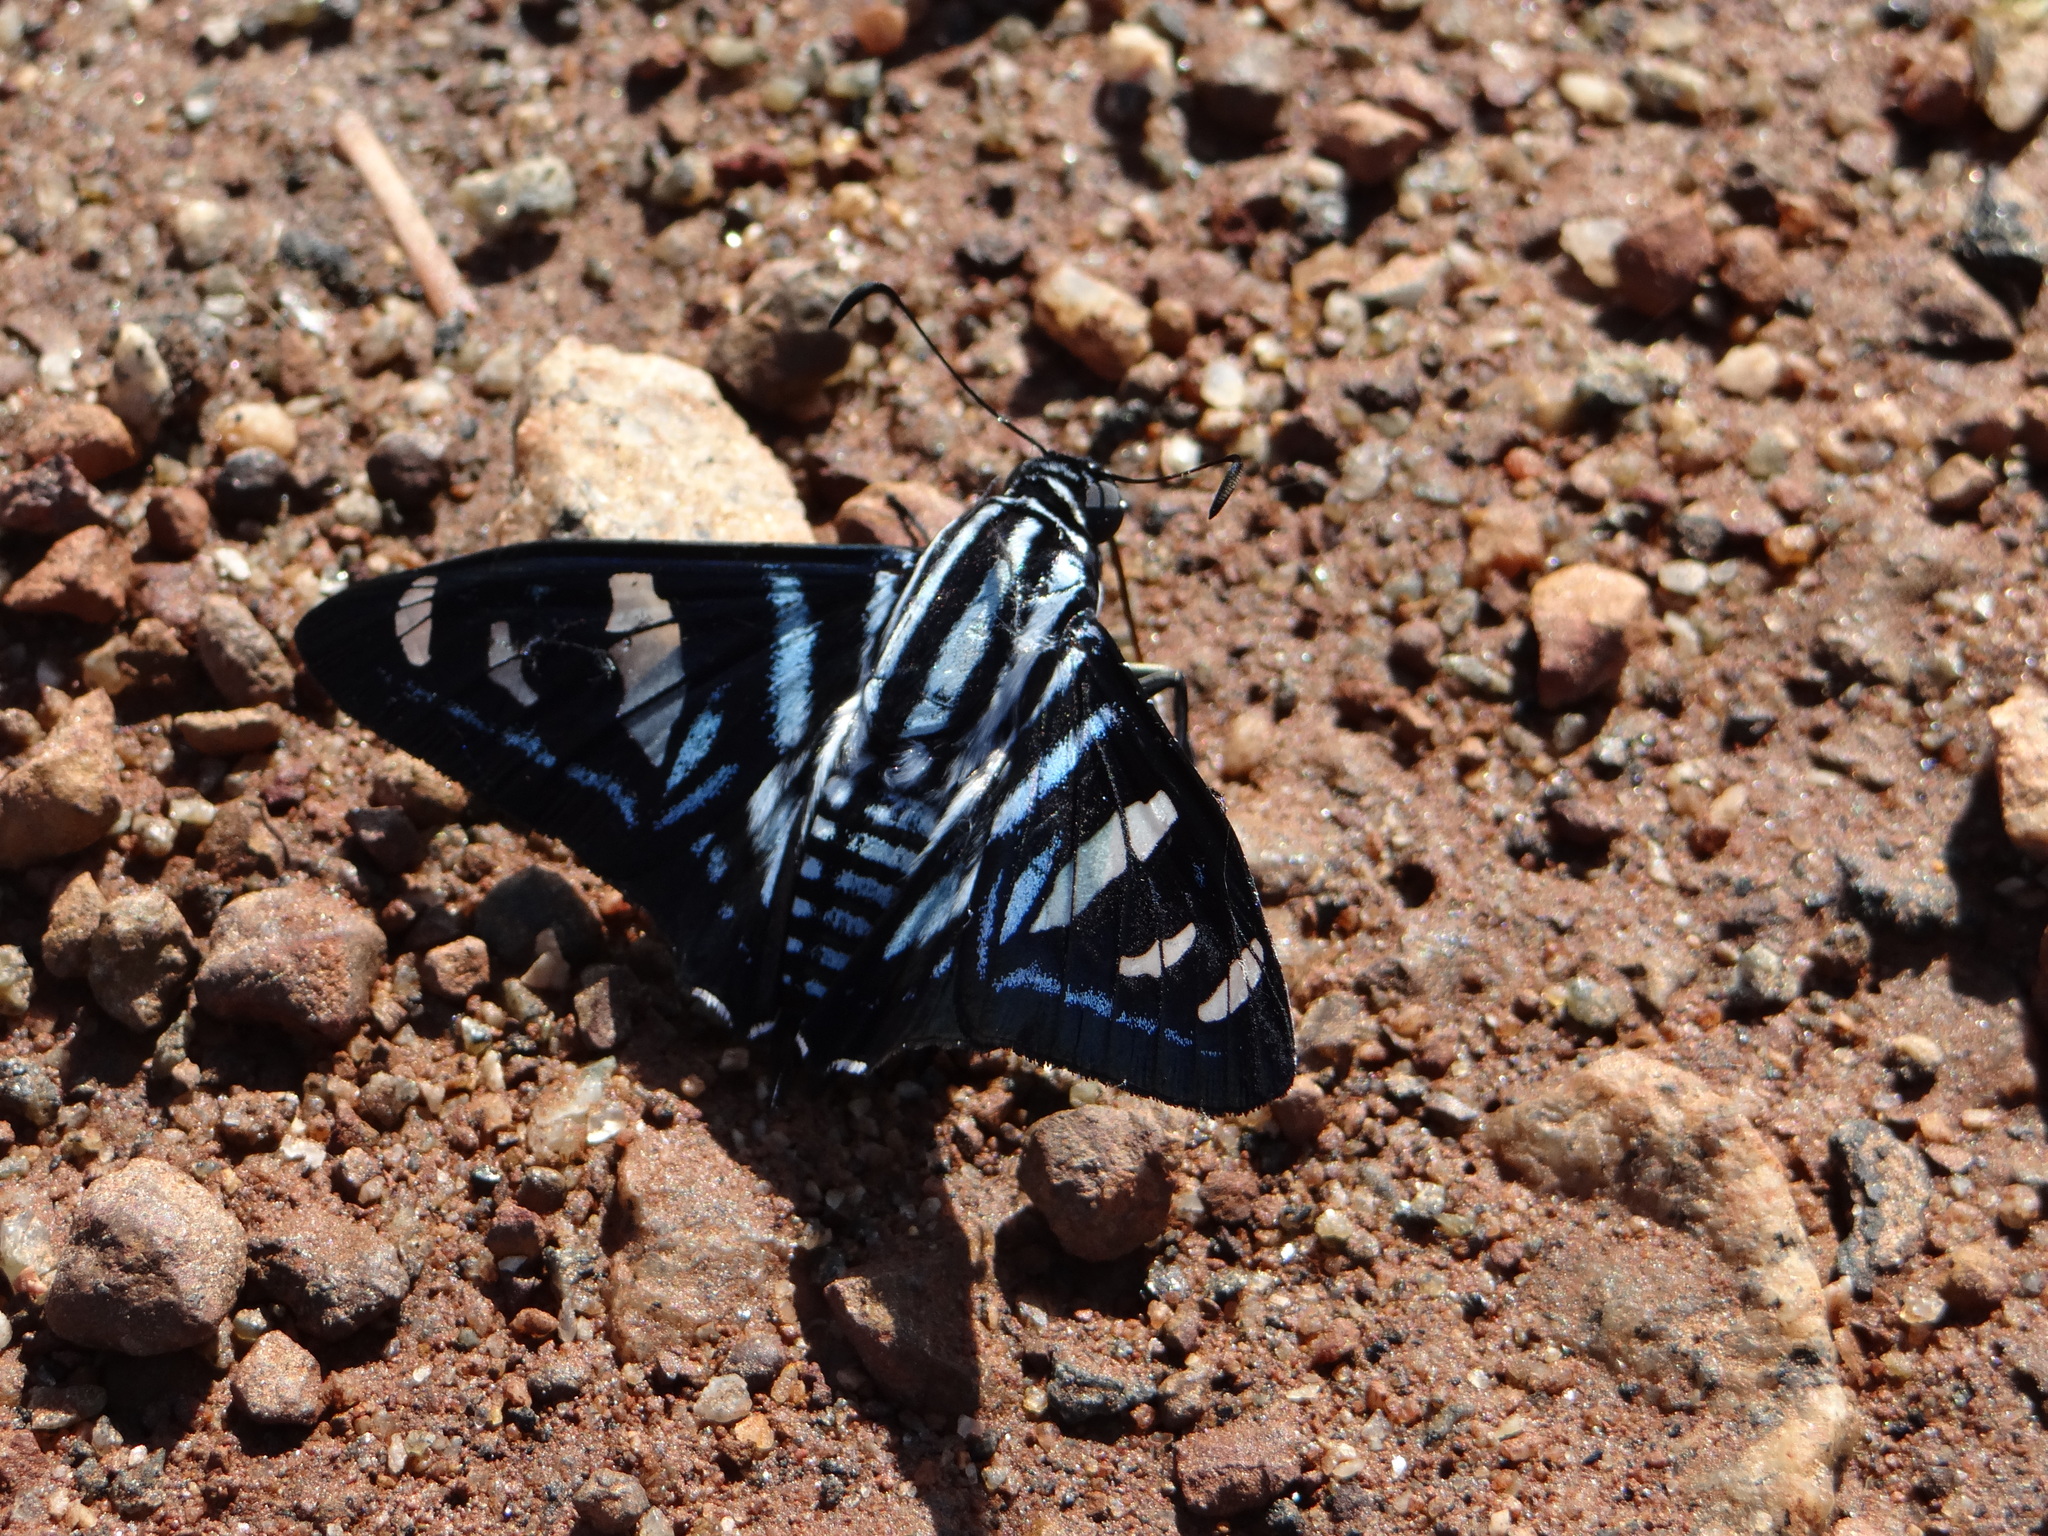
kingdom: Animalia
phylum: Arthropoda
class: Insecta
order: Lepidoptera
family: Hesperiidae
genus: Jemadia
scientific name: Jemadia hewitsonii
